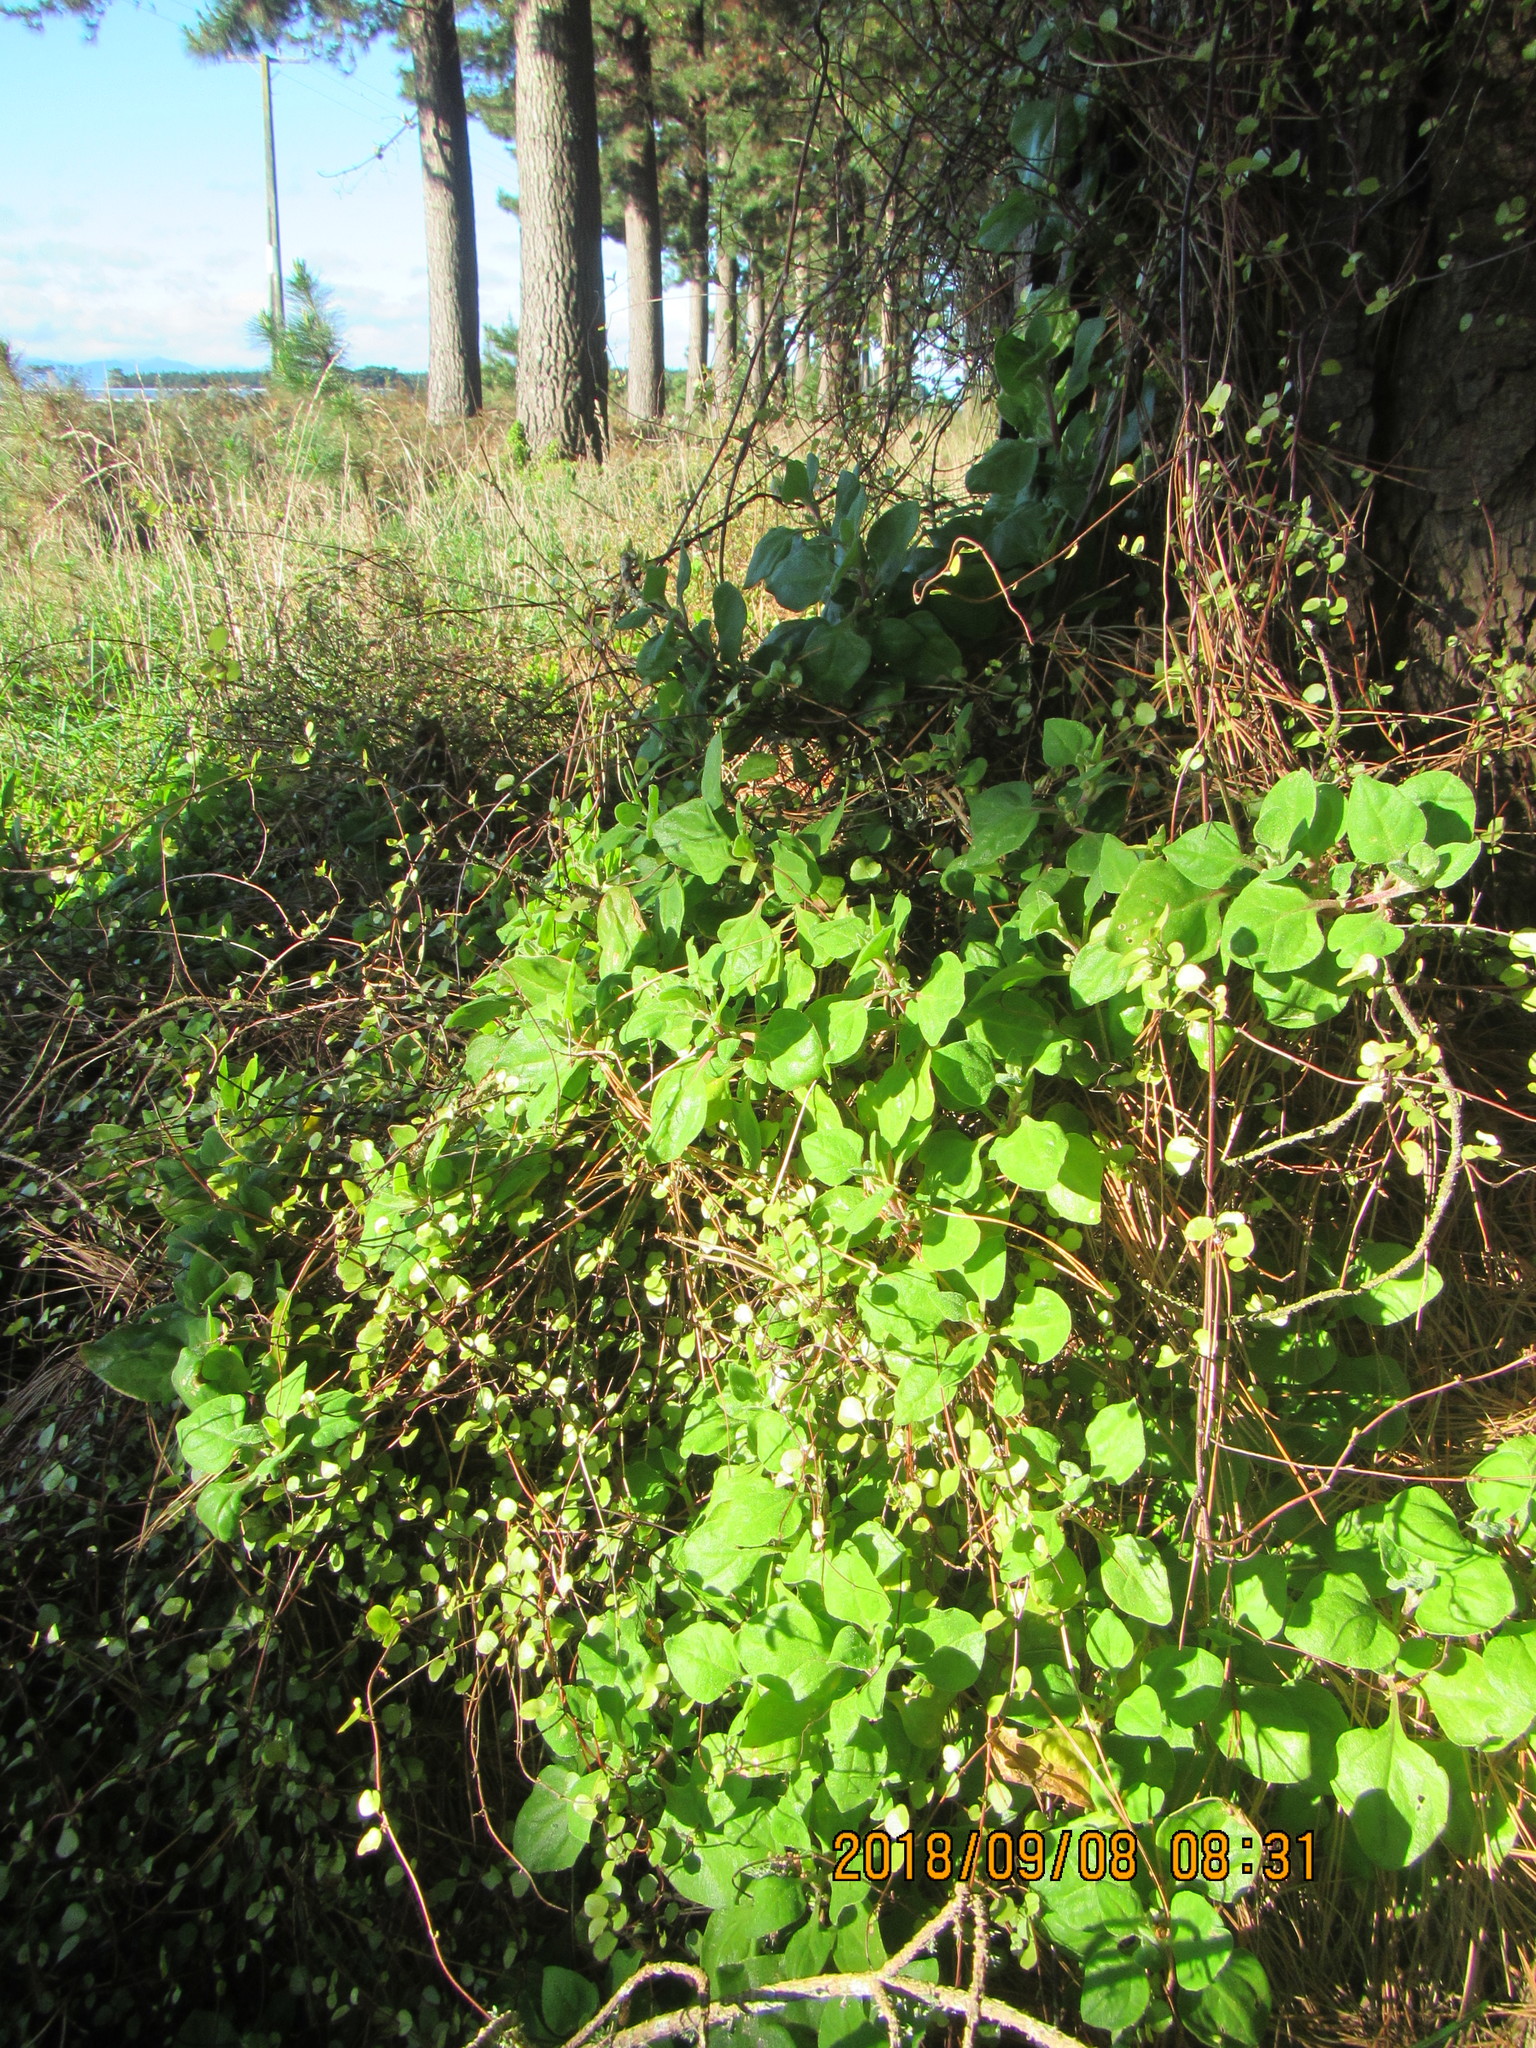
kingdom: Plantae
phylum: Tracheophyta
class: Magnoliopsida
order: Caryophyllales
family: Aizoaceae
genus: Tetragonia
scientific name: Tetragonia implexicoma
